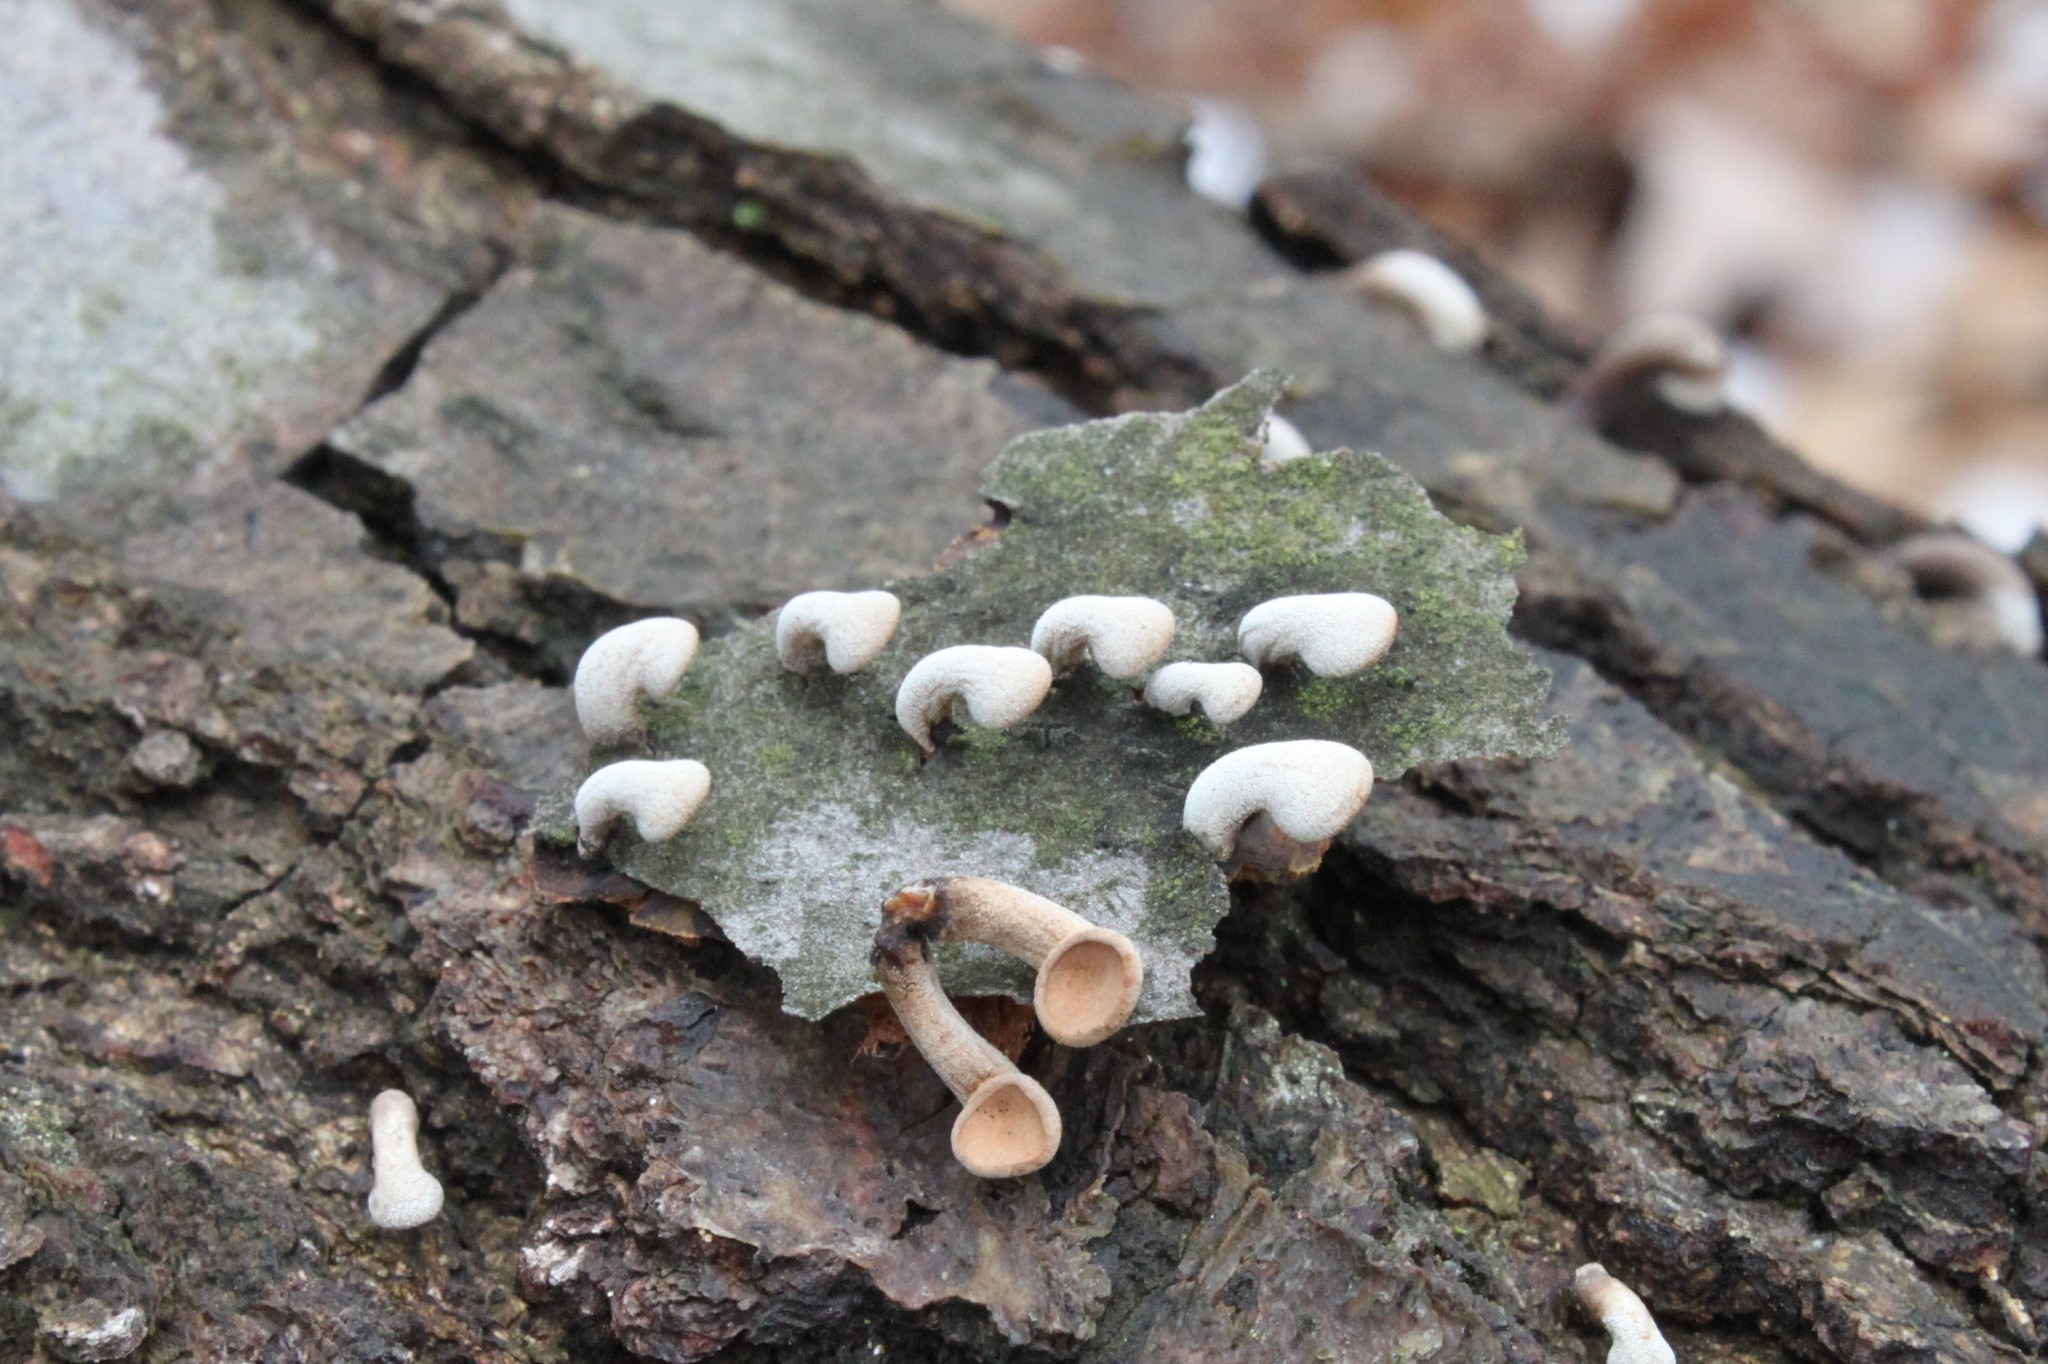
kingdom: Fungi
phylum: Basidiomycota
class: Agaricomycetes
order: Agaricales
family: Schizophyllaceae
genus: Porodisculus
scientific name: Porodisculus pendulus
